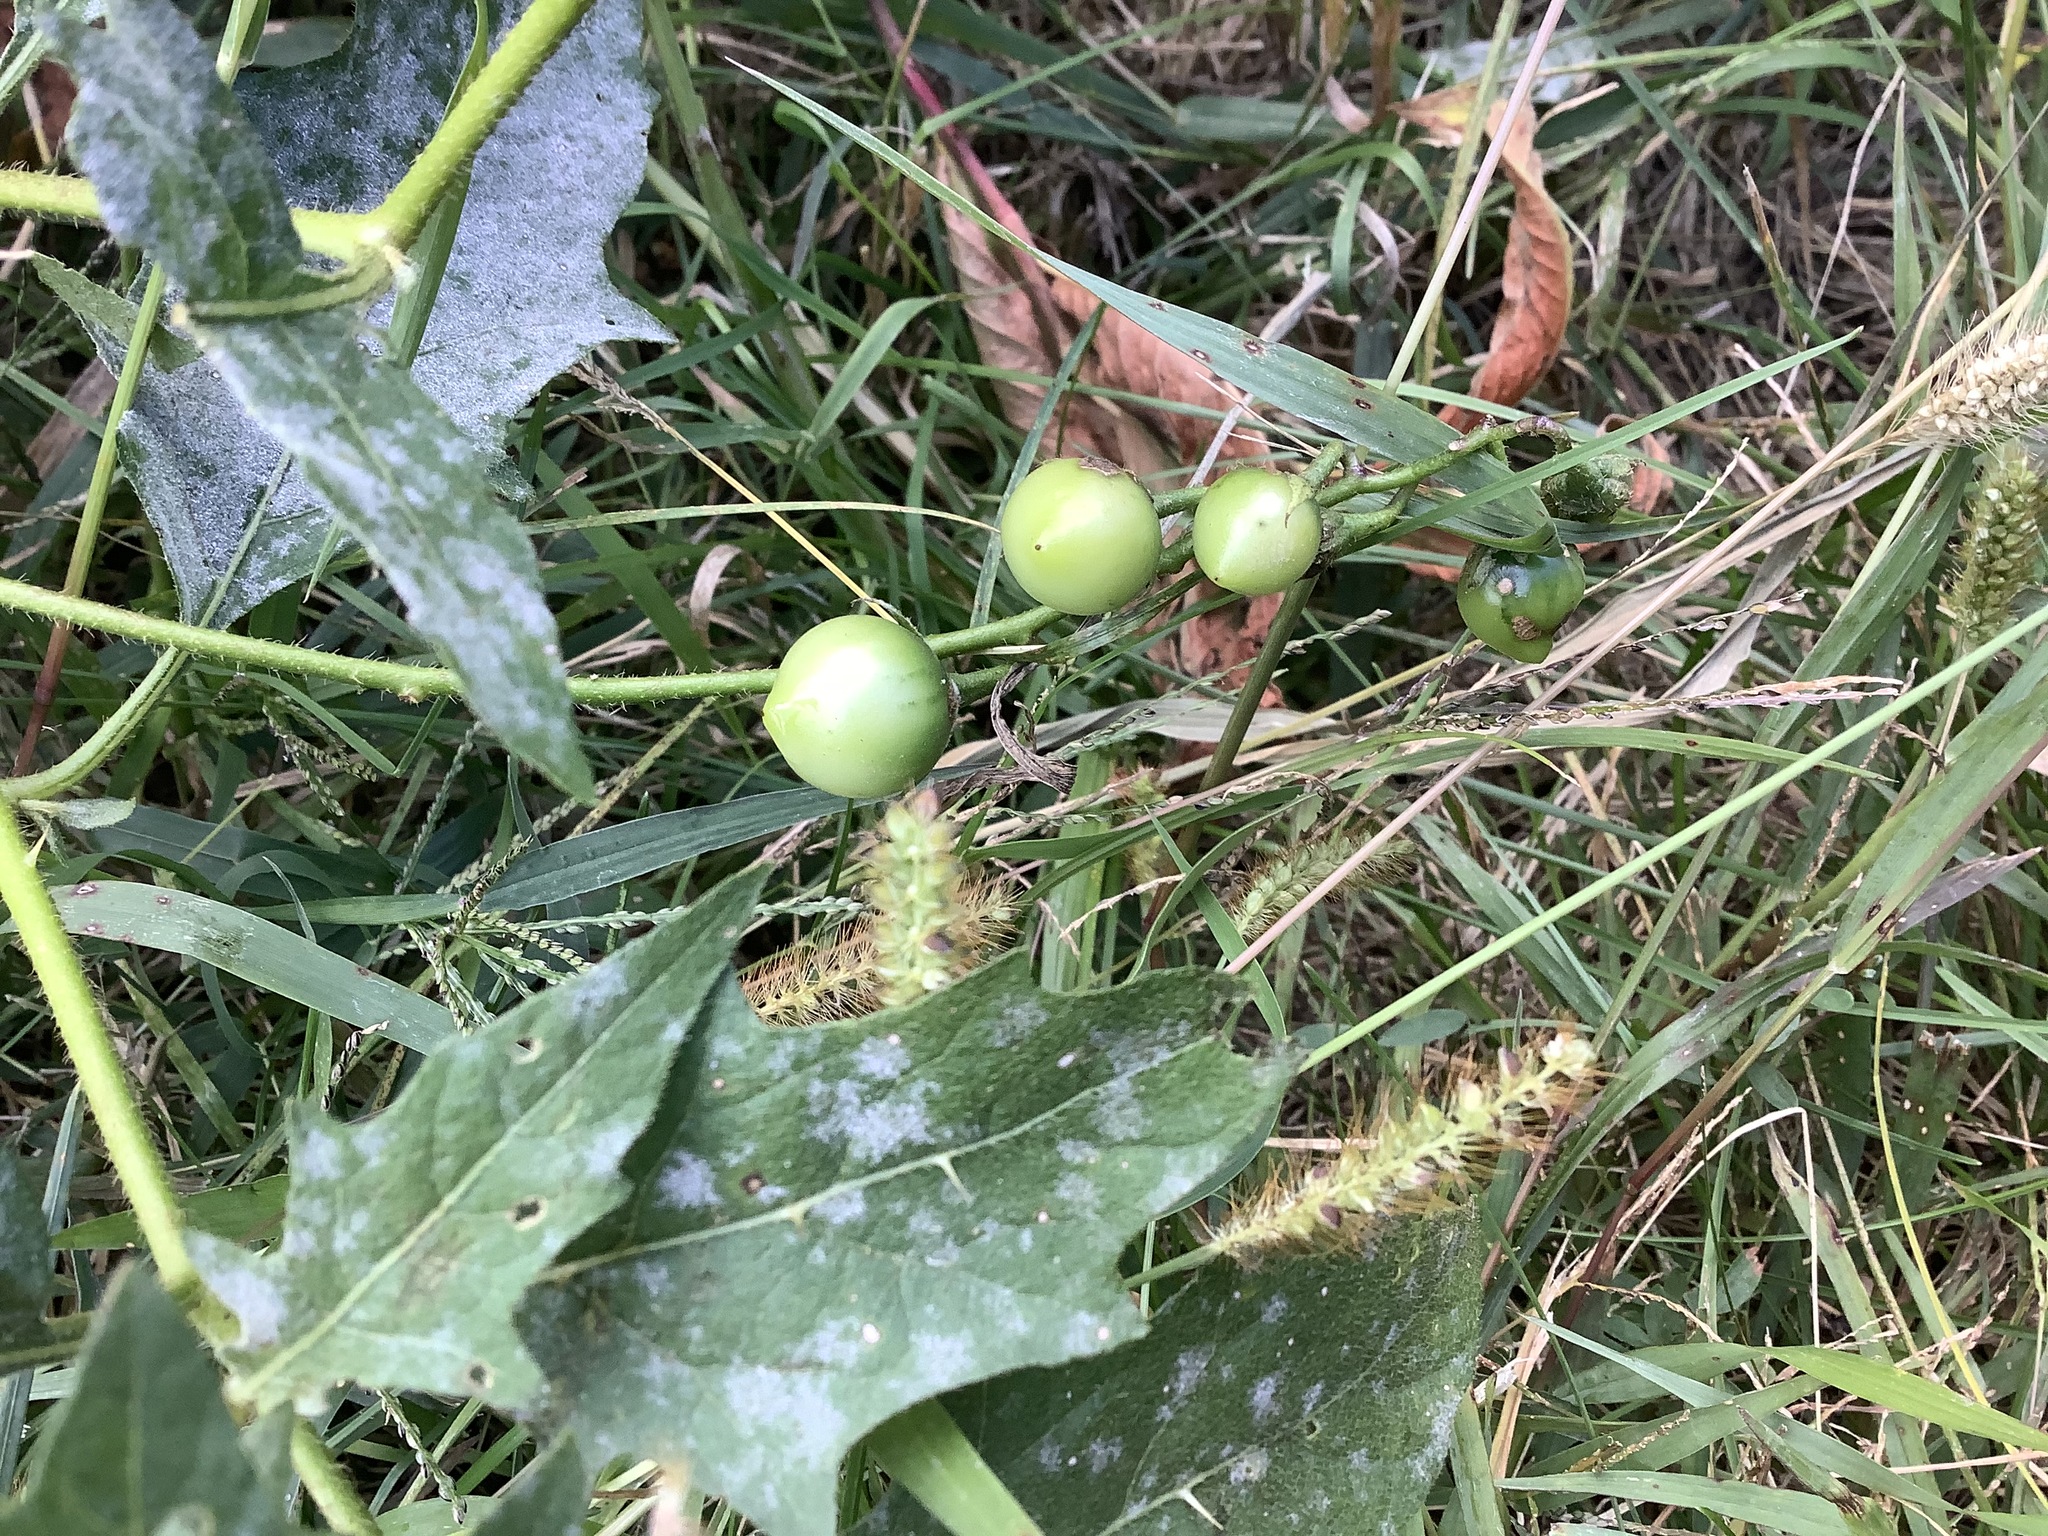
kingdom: Plantae
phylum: Tracheophyta
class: Magnoliopsida
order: Solanales
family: Solanaceae
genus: Solanum
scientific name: Solanum carolinense
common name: Horse-nettle
